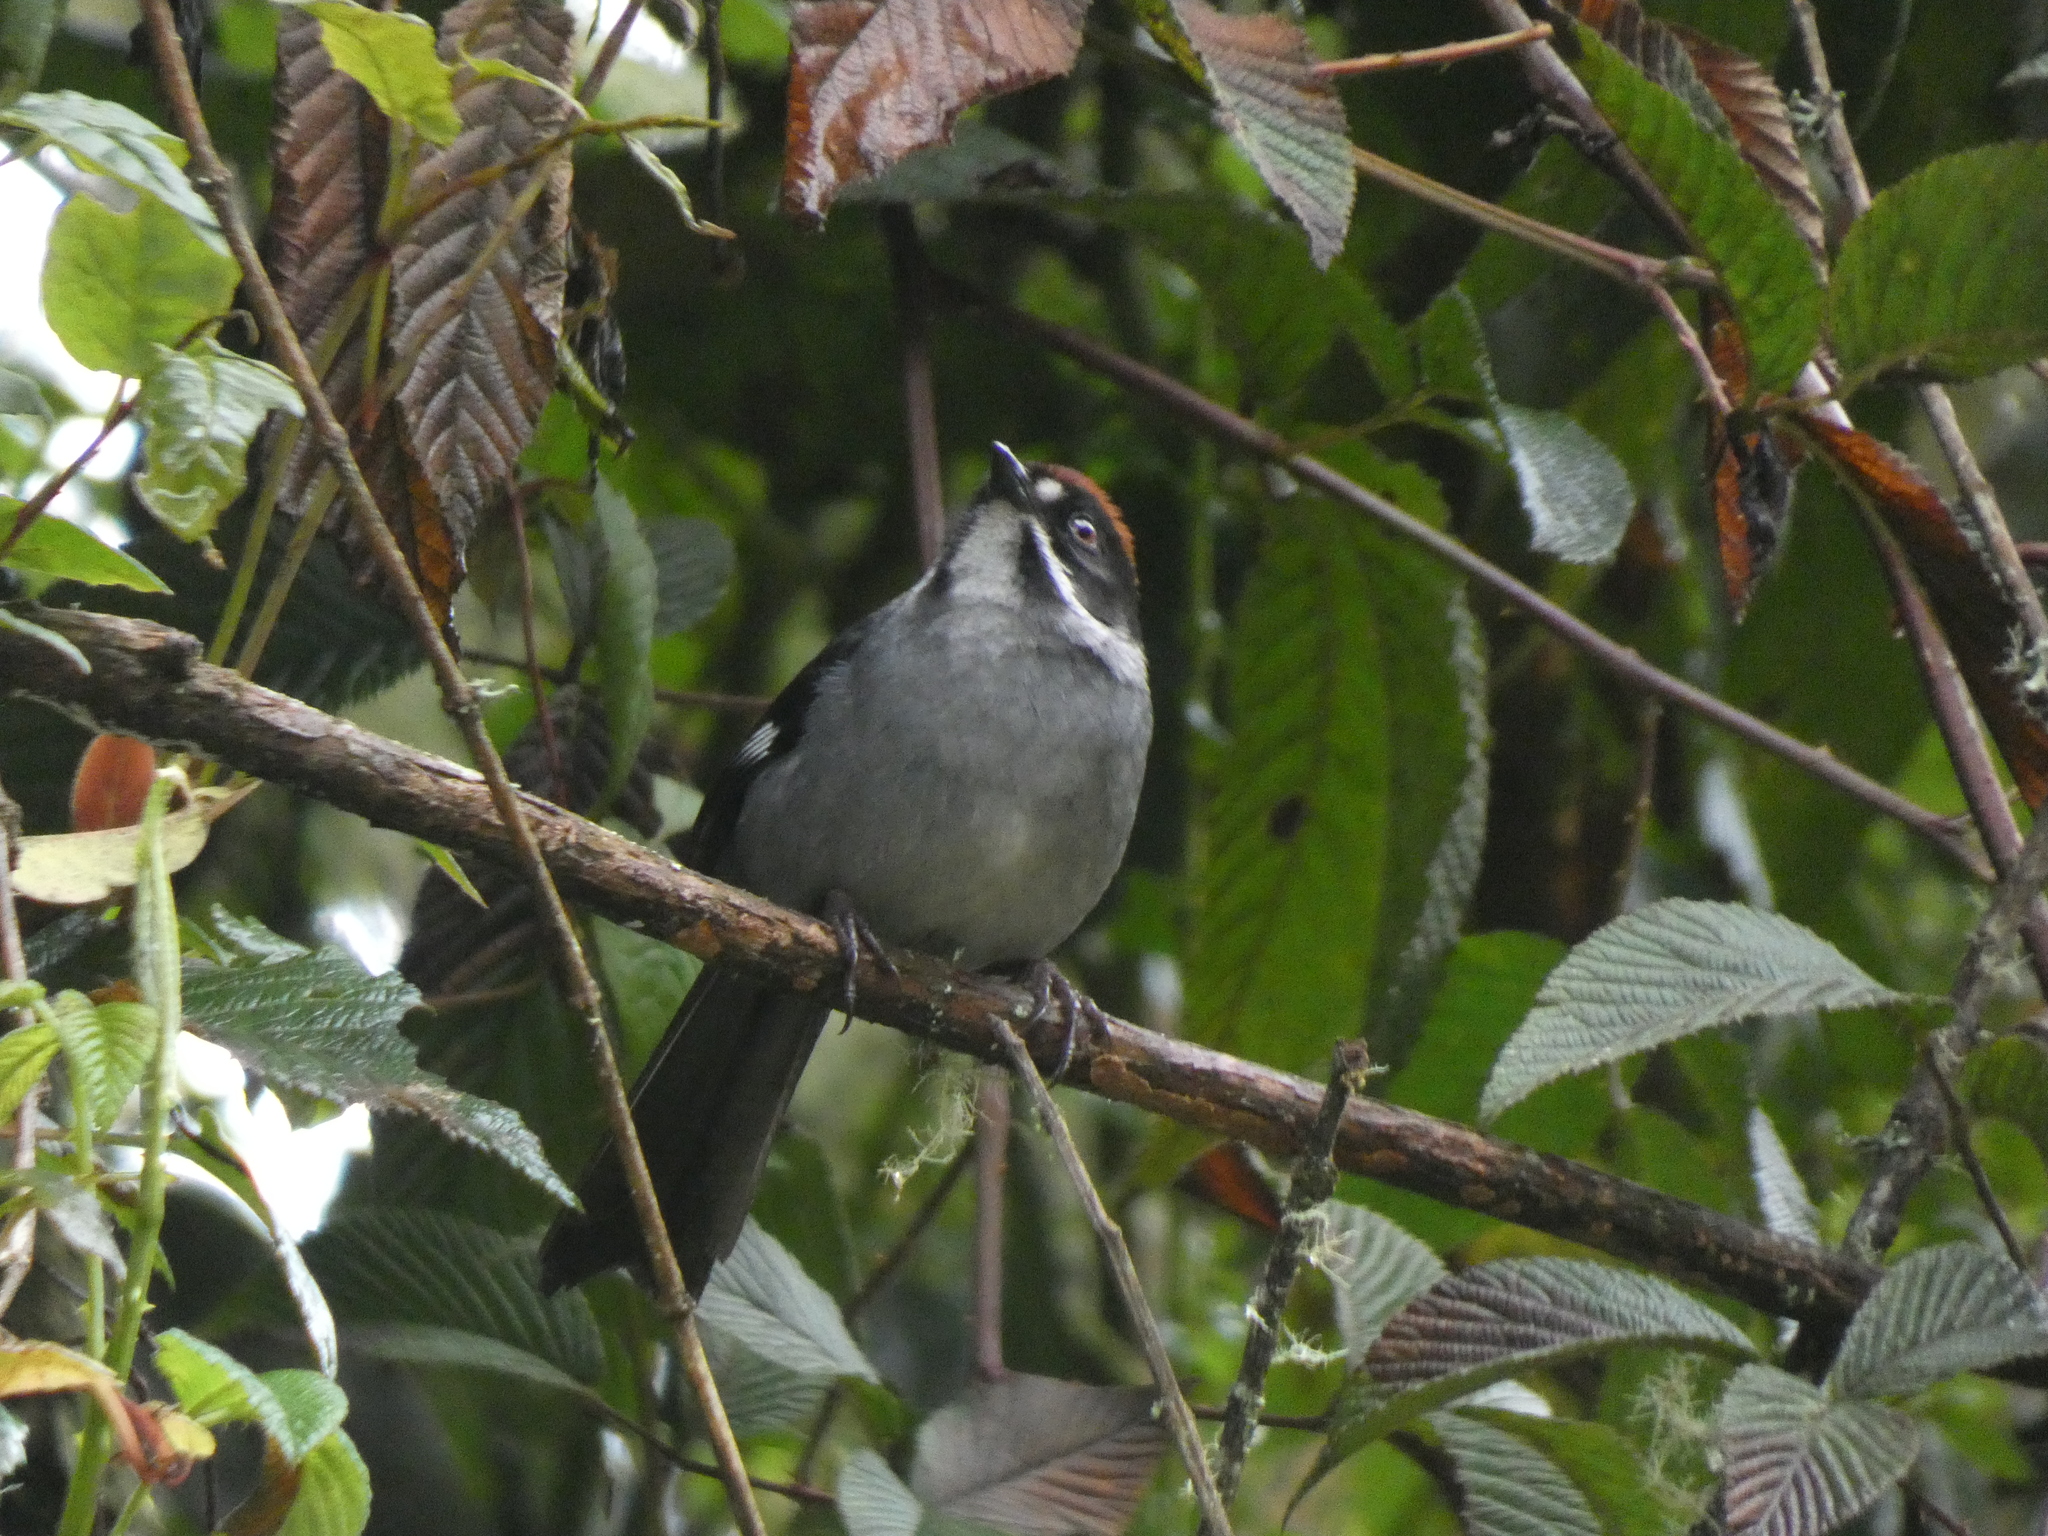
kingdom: Animalia
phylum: Chordata
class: Aves
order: Passeriformes
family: Passerellidae
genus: Atlapetes
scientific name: Atlapetes schistaceus
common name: Slaty brushfinch
